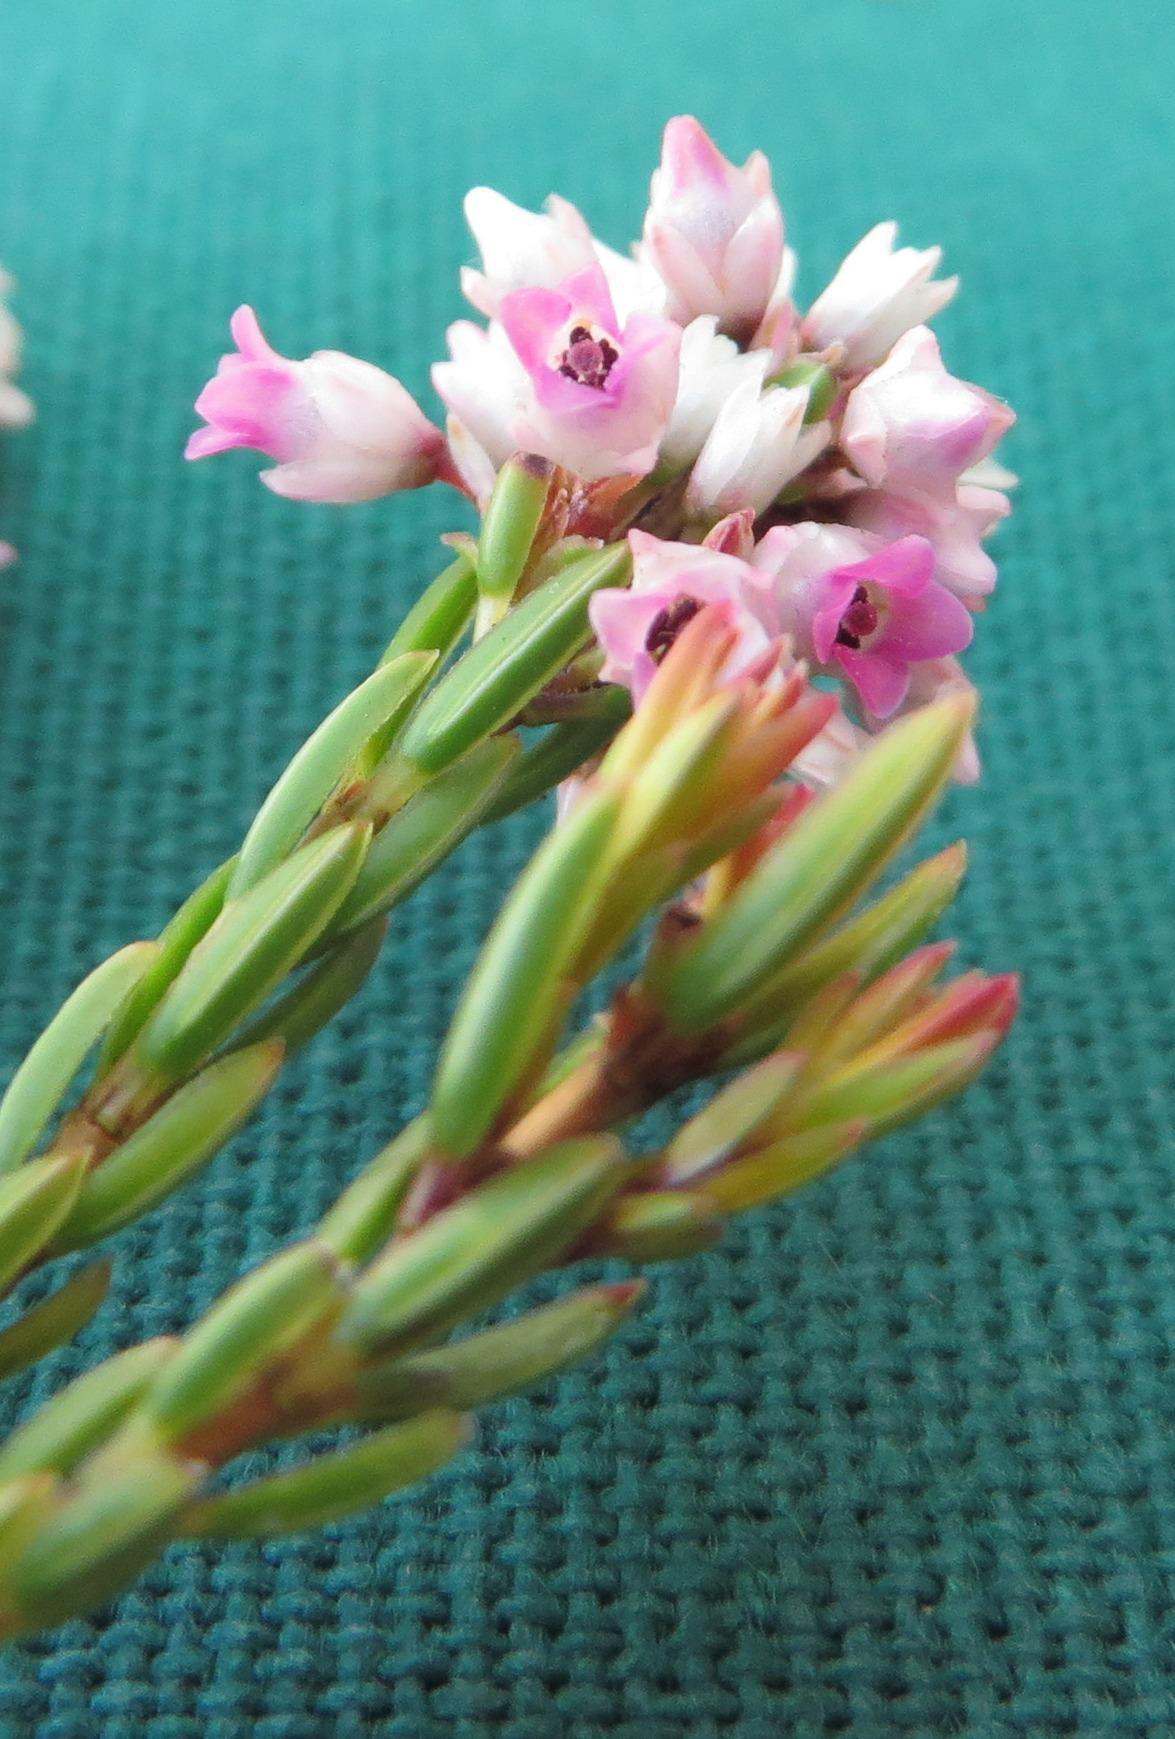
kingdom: Plantae
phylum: Tracheophyta
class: Magnoliopsida
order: Ericales
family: Ericaceae
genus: Erica
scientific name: Erica articularis
